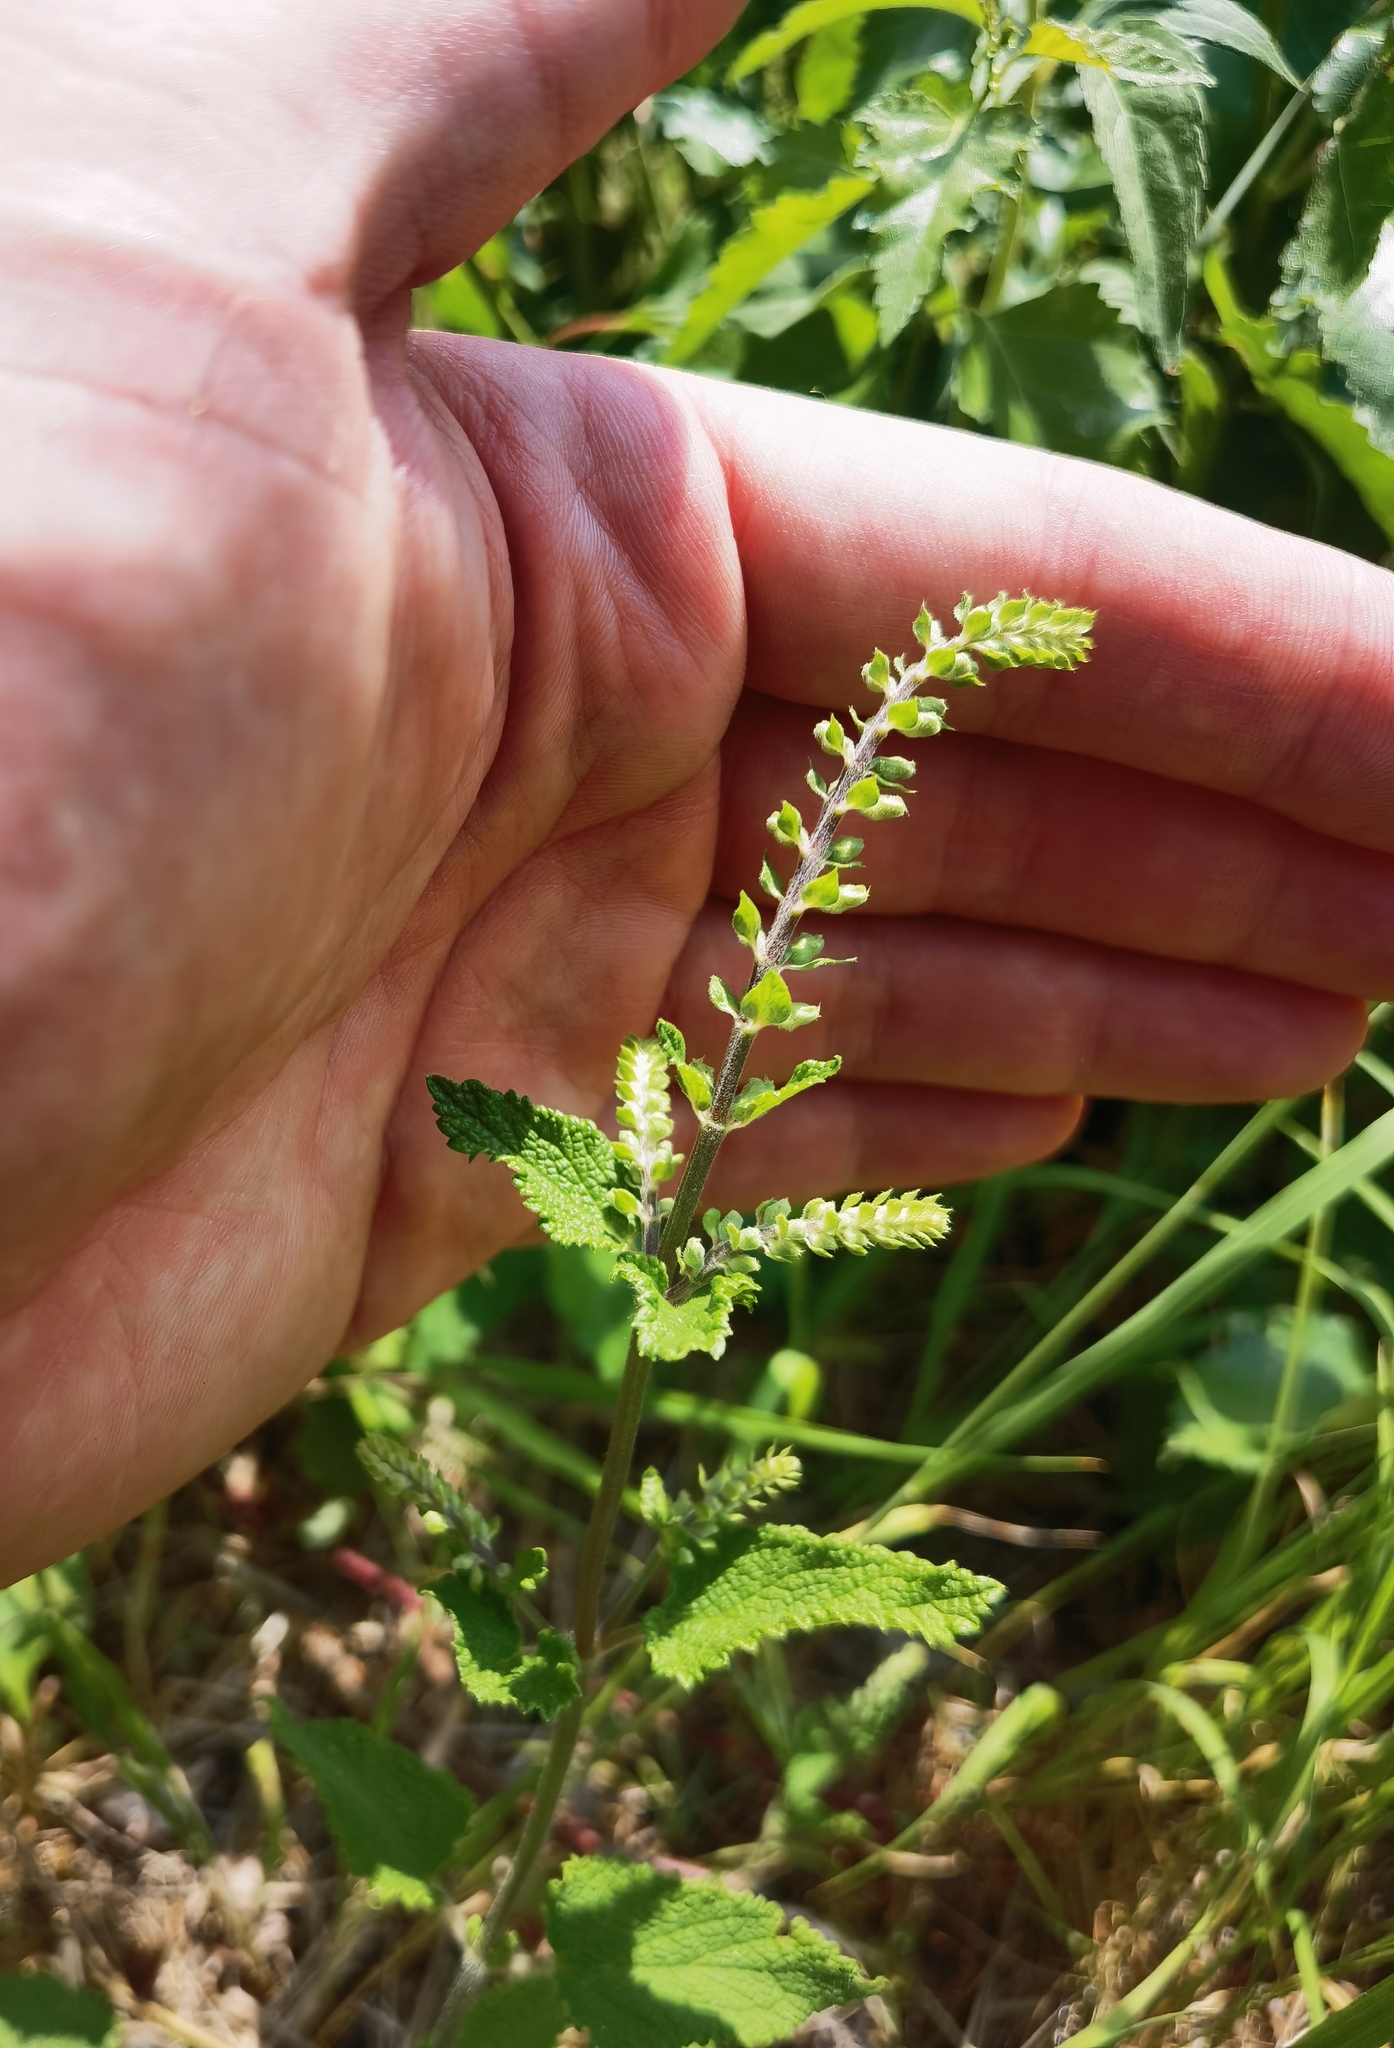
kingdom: Plantae
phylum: Tracheophyta
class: Magnoliopsida
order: Lamiales
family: Lamiaceae
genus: Teucrium
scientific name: Teucrium scorodonia
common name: Woodland germander
